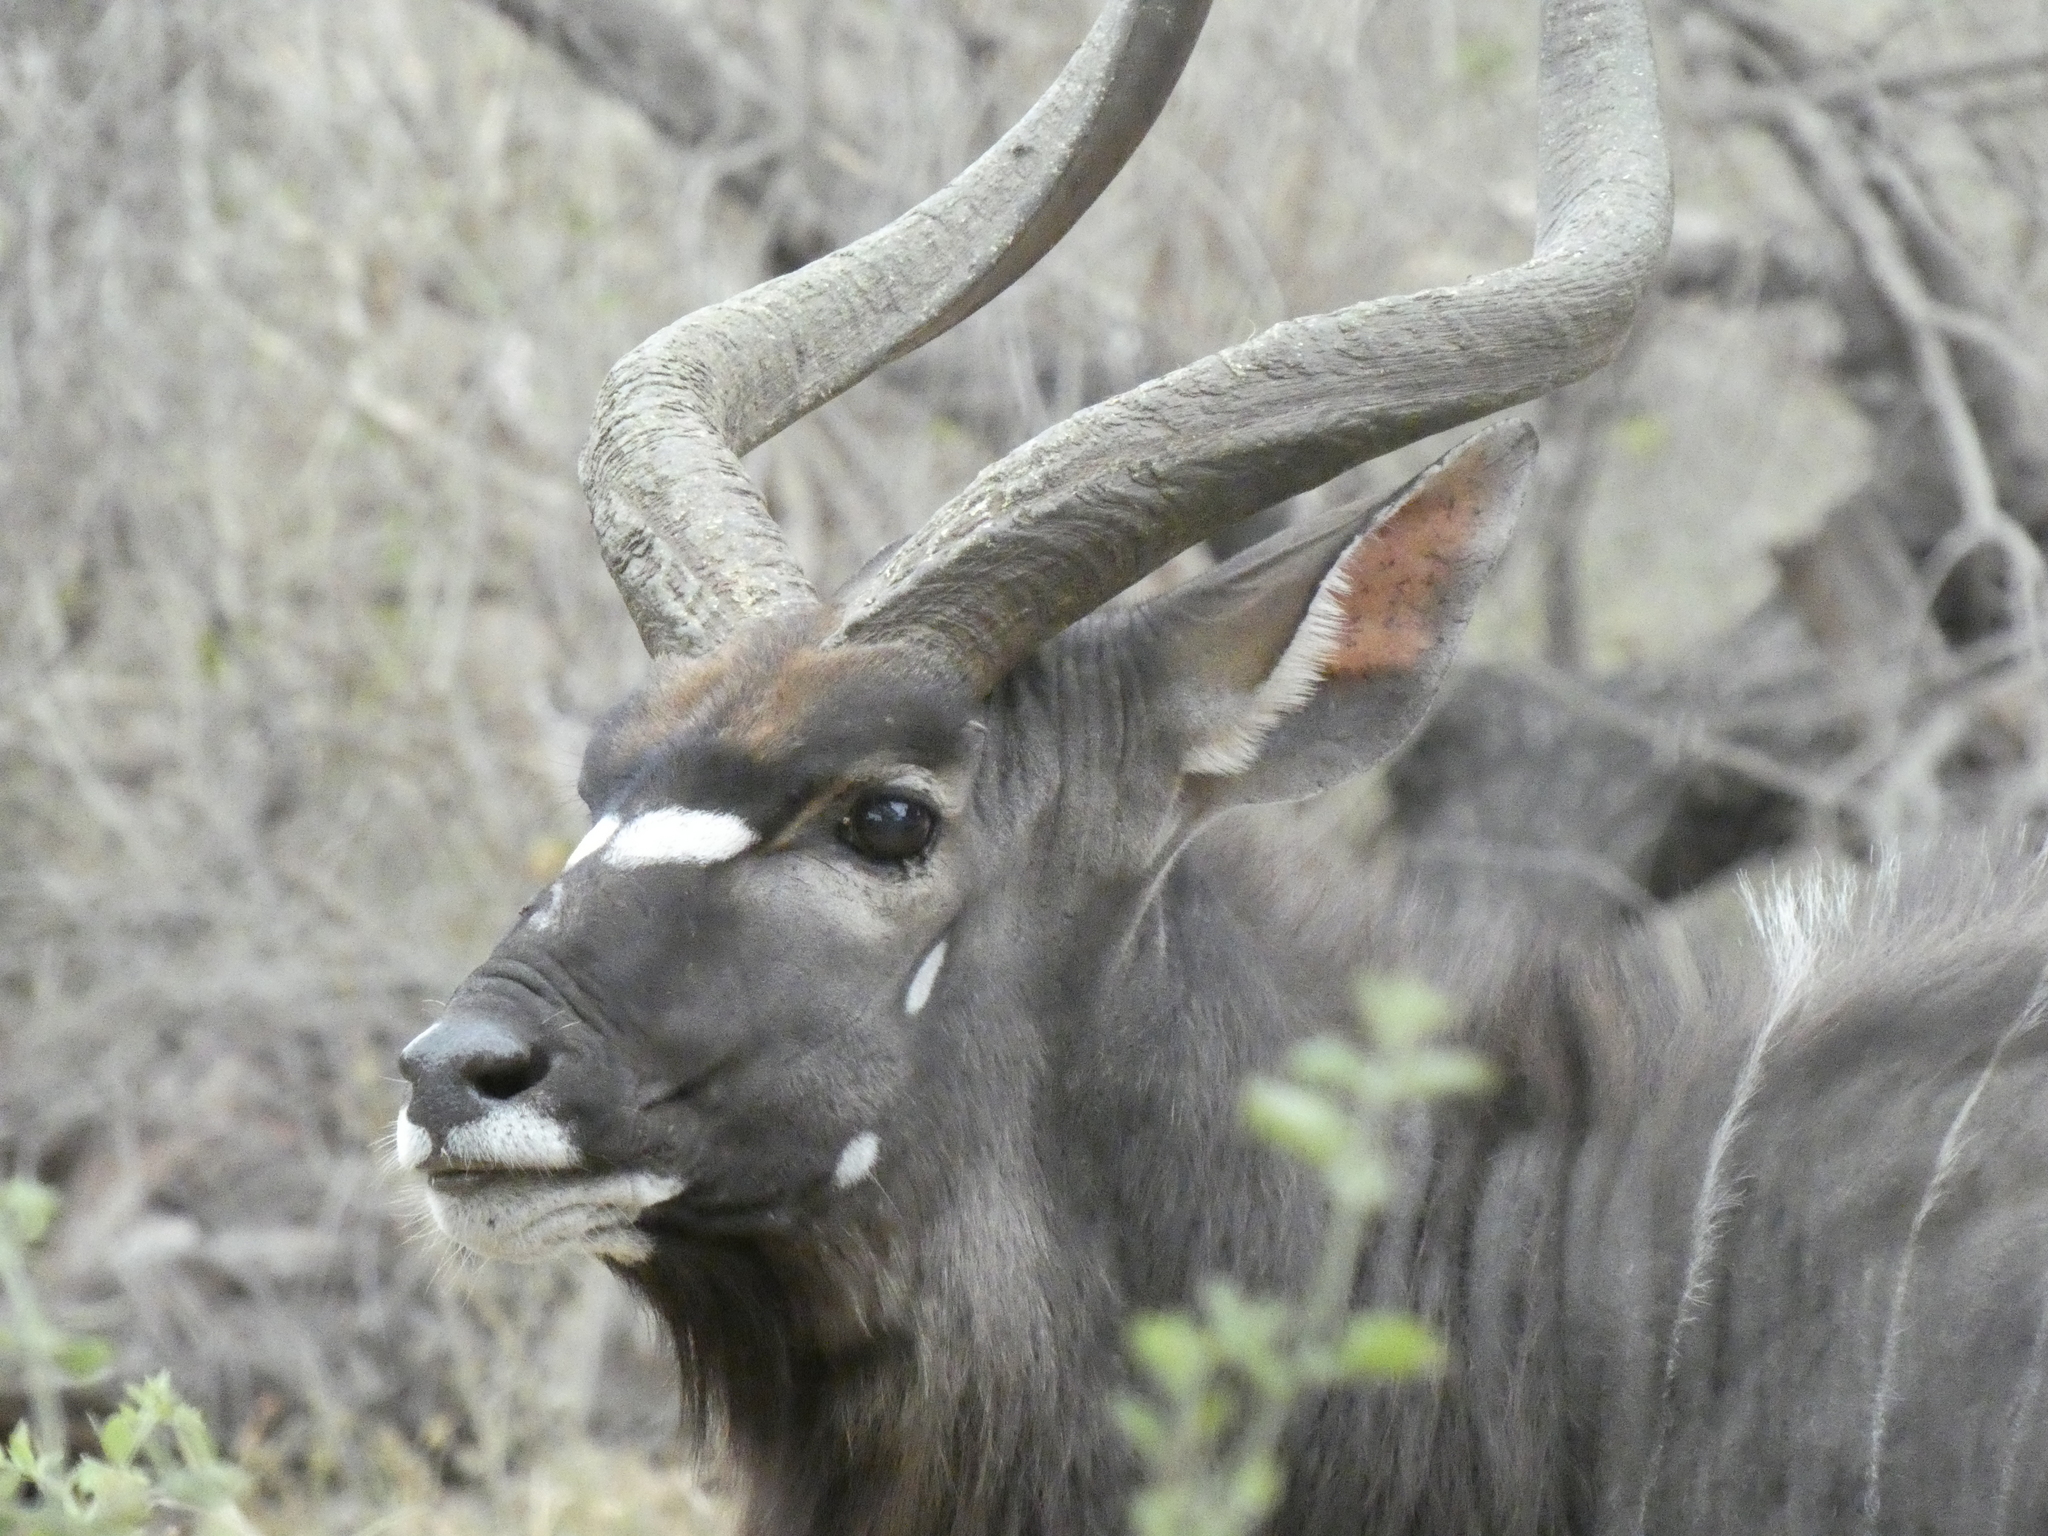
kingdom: Animalia
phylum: Chordata
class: Mammalia
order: Artiodactyla
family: Bovidae
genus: Tragelaphus
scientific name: Tragelaphus angasii
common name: Nyala
